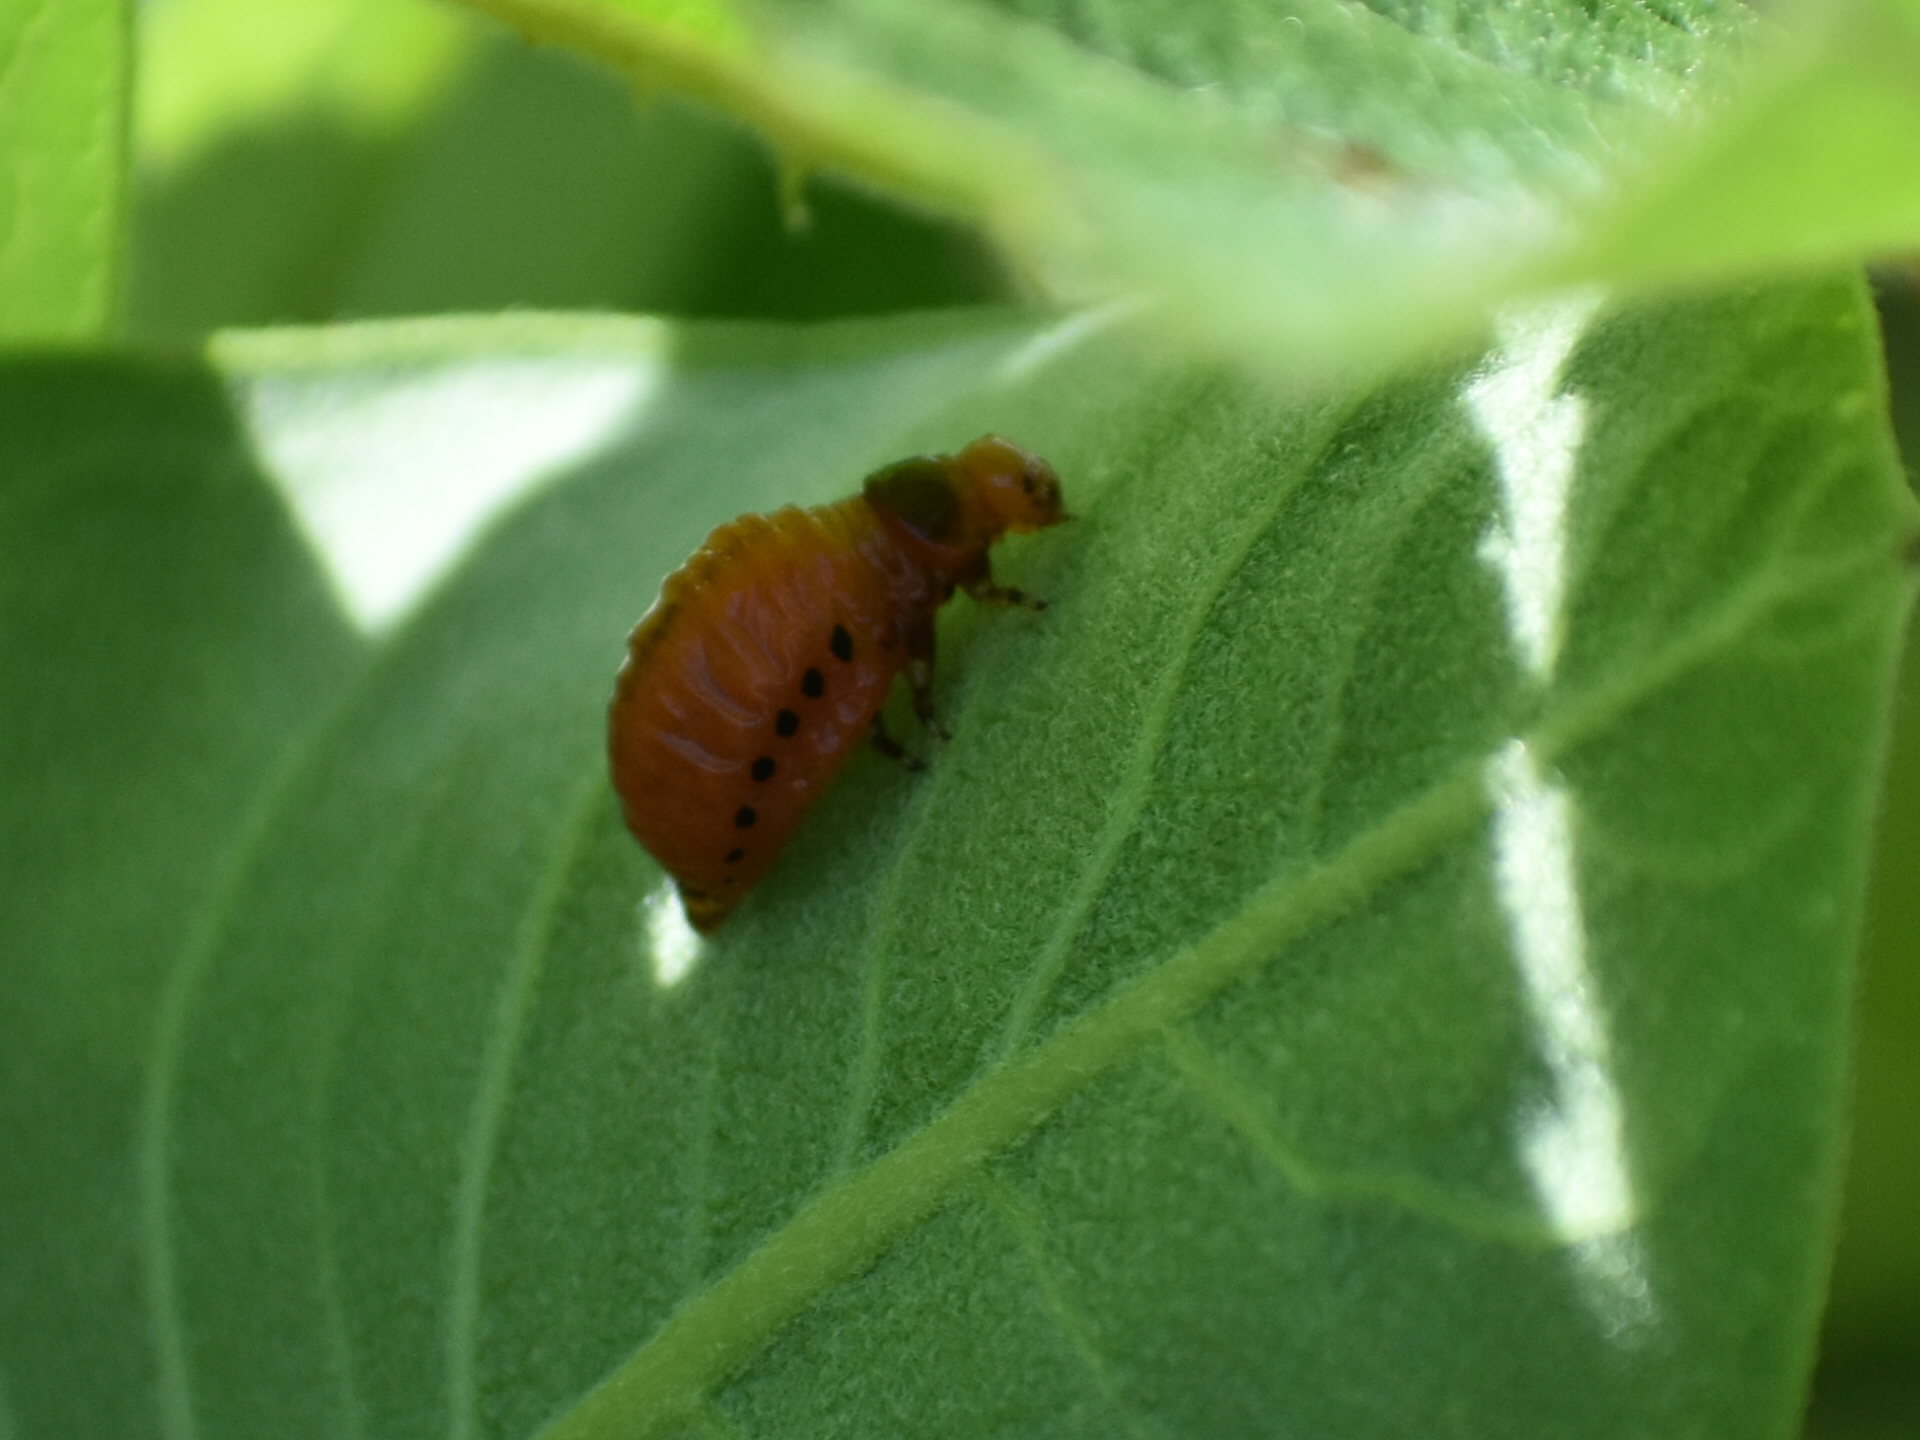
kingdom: Animalia
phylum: Arthropoda
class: Insecta
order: Coleoptera
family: Chrysomelidae
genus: Labidomera
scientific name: Labidomera clivicollis
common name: Swamp milkweed leaf beetle
